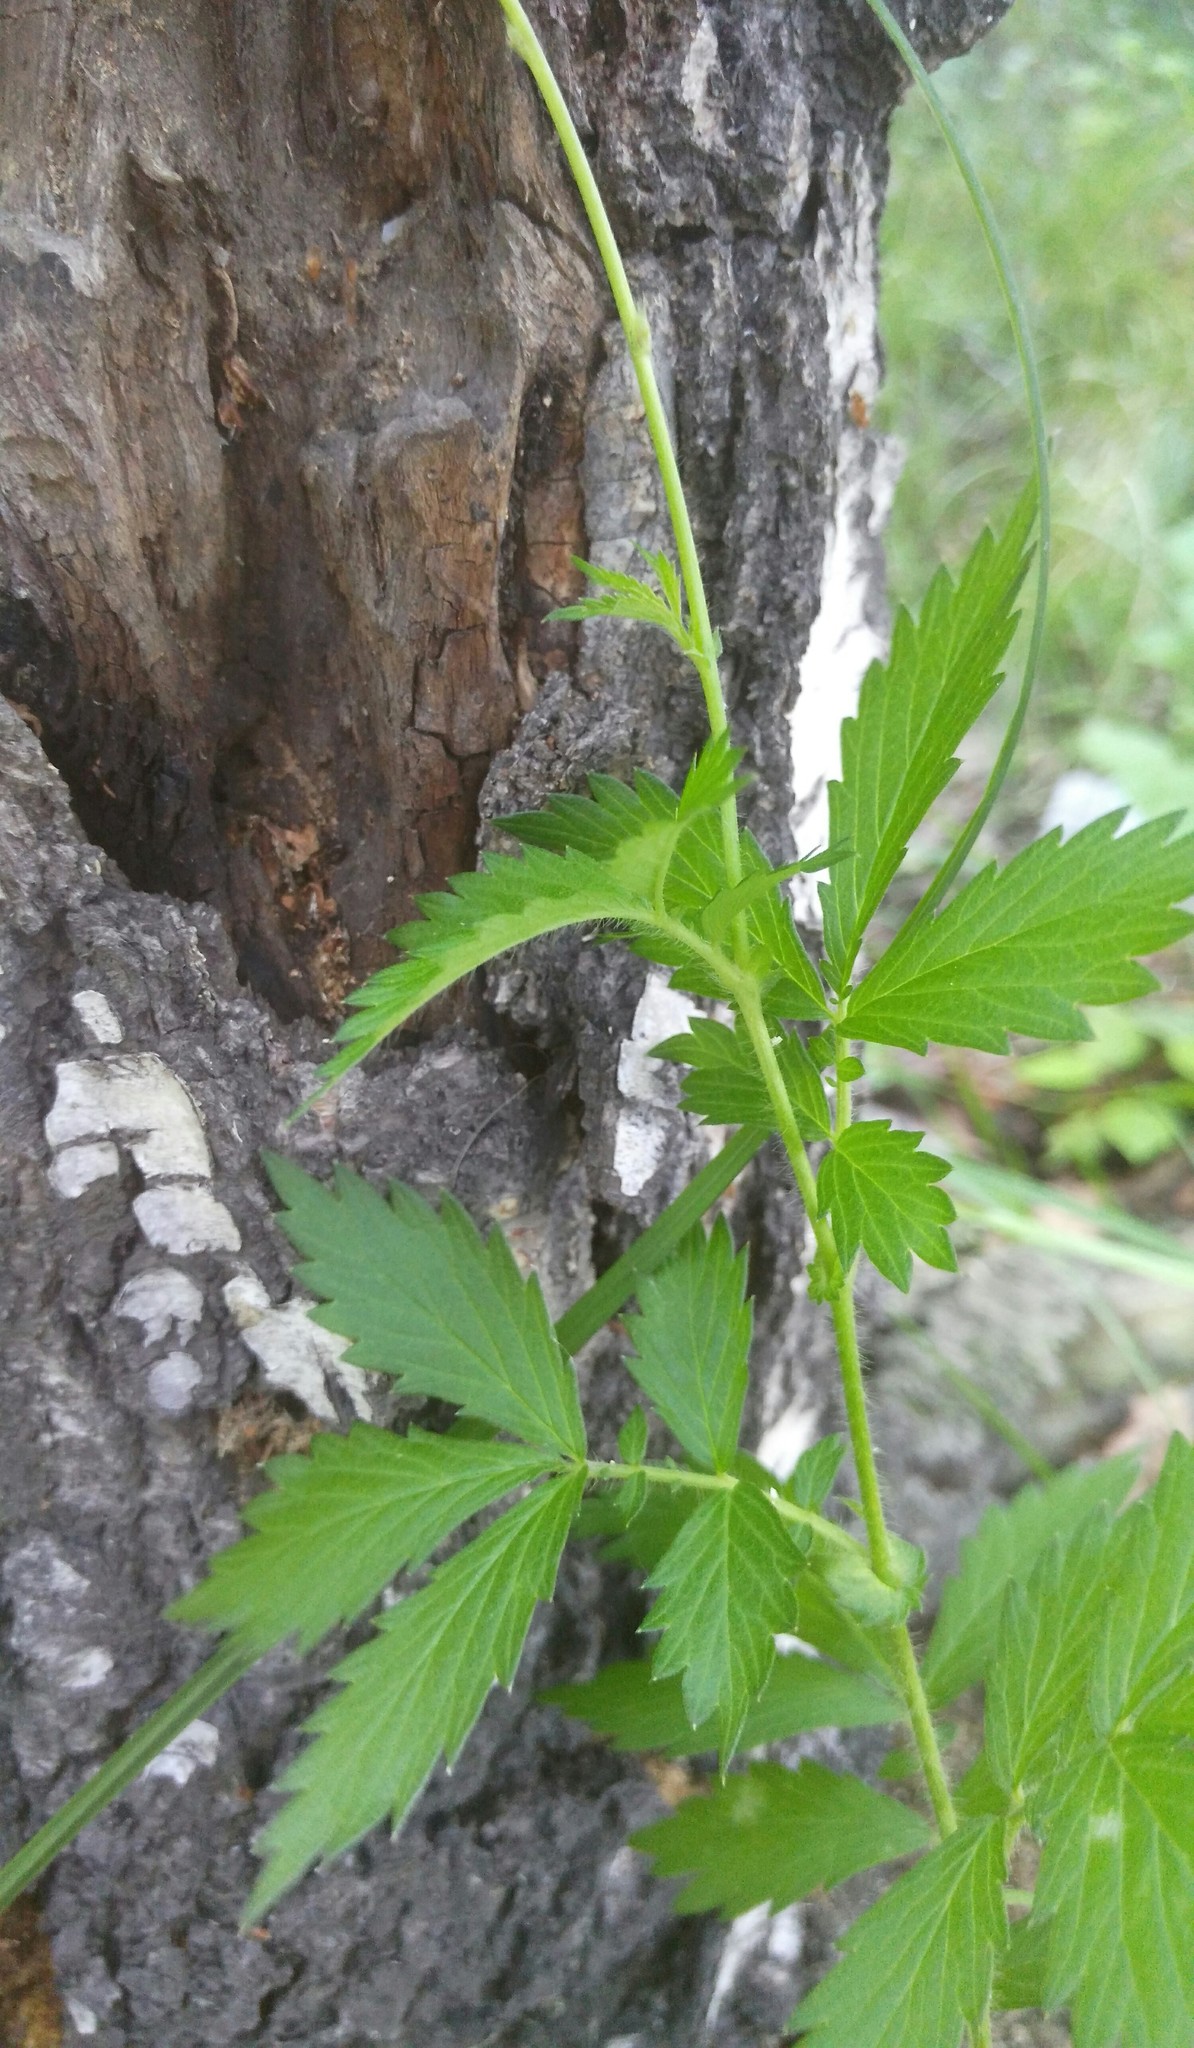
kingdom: Plantae
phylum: Tracheophyta
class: Magnoliopsida
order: Rosales
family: Rosaceae
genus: Agrimonia
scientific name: Agrimonia pilosa
